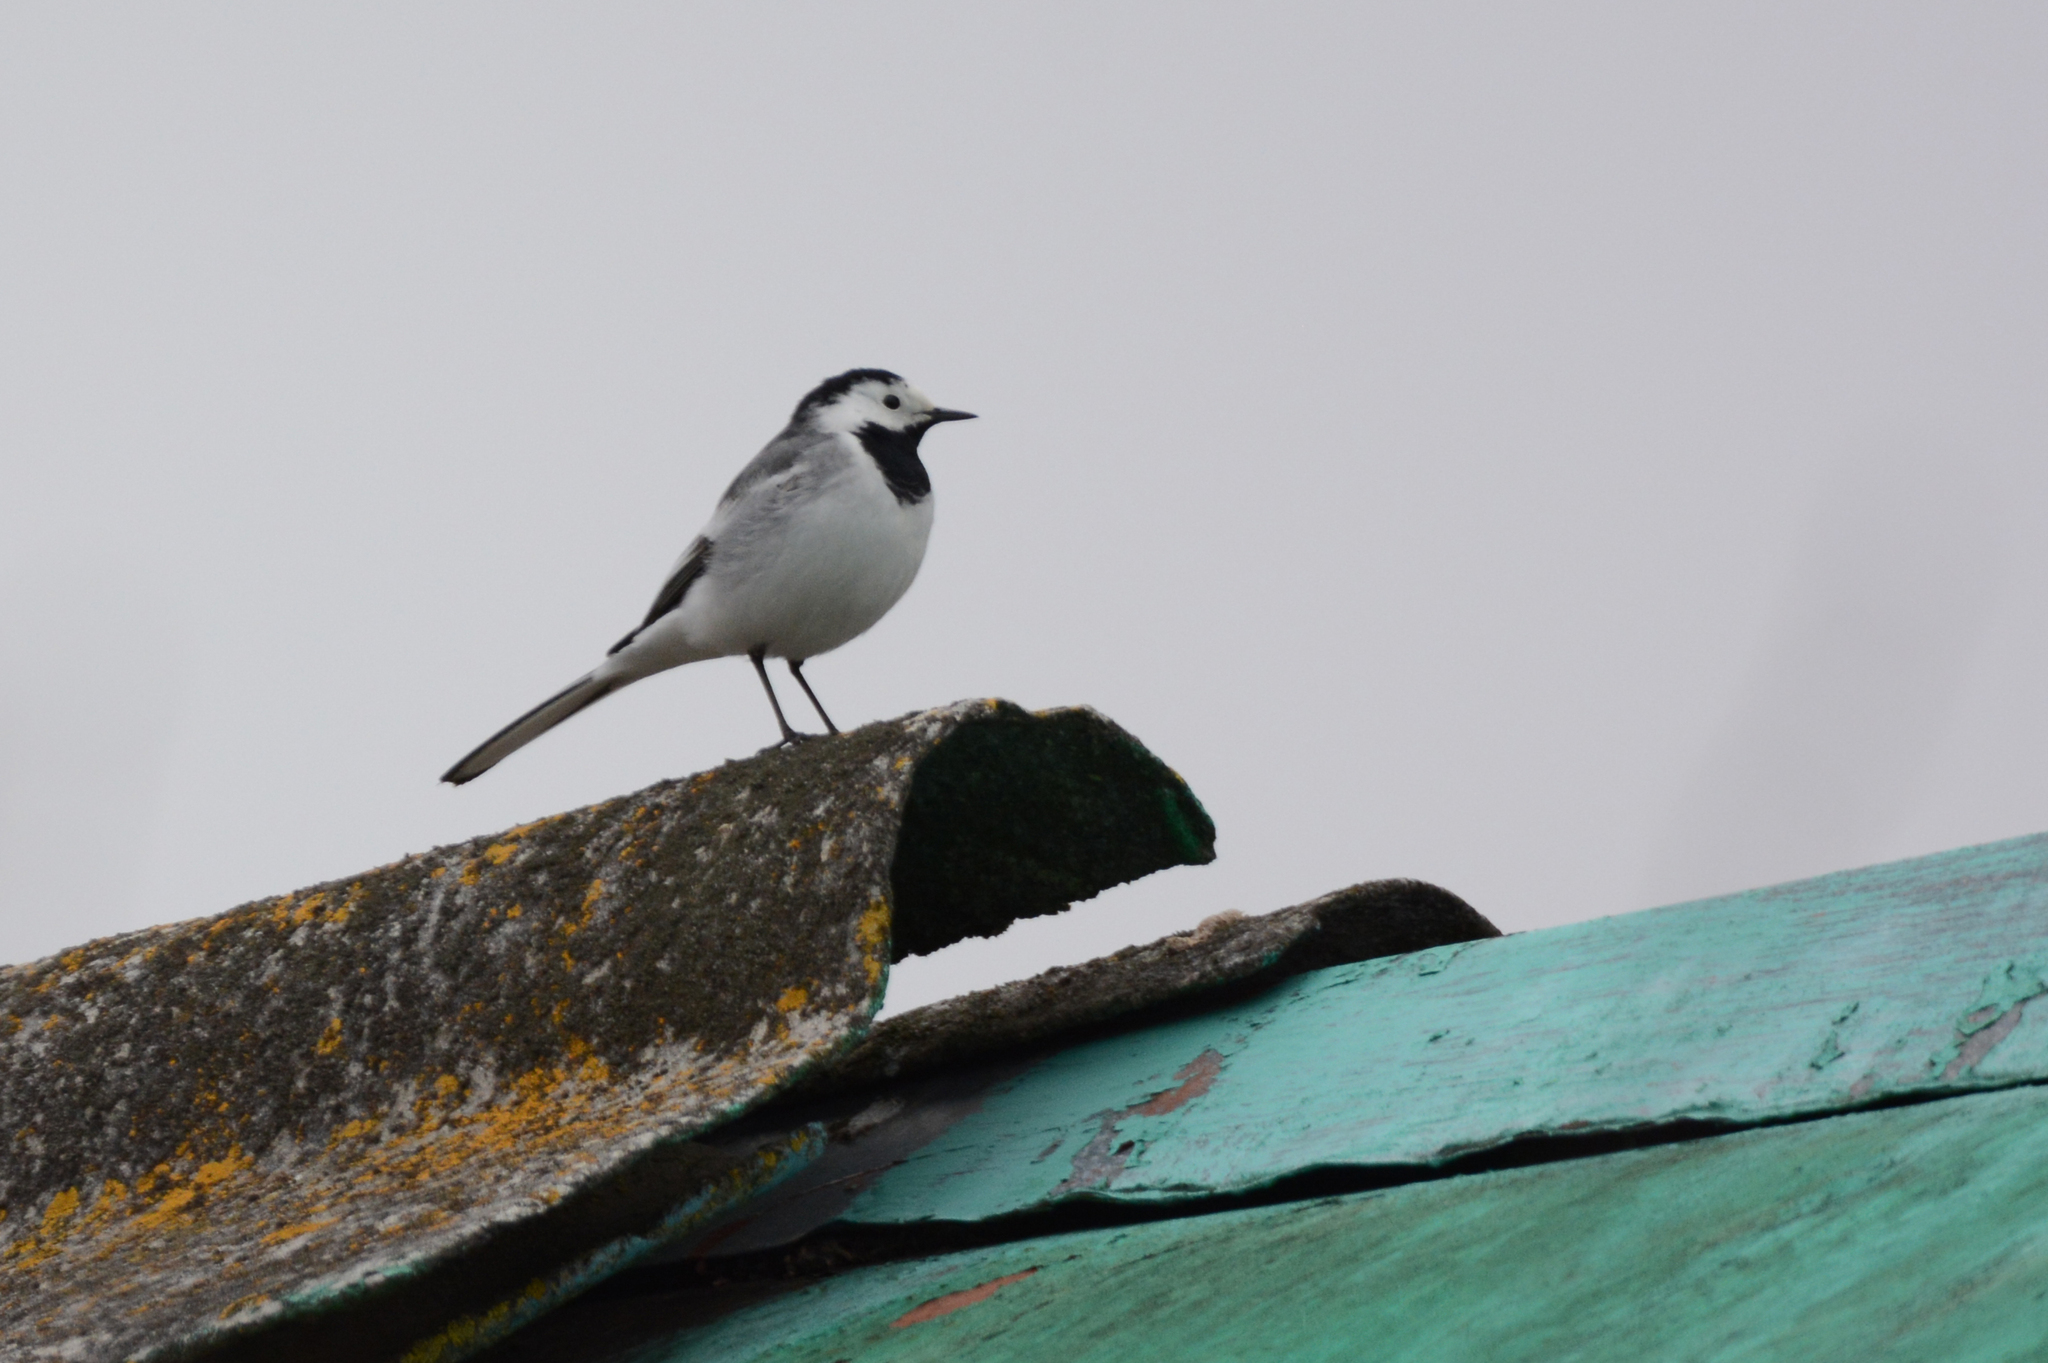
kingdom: Animalia
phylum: Chordata
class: Aves
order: Passeriformes
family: Motacillidae
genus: Motacilla
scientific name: Motacilla alba
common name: White wagtail
